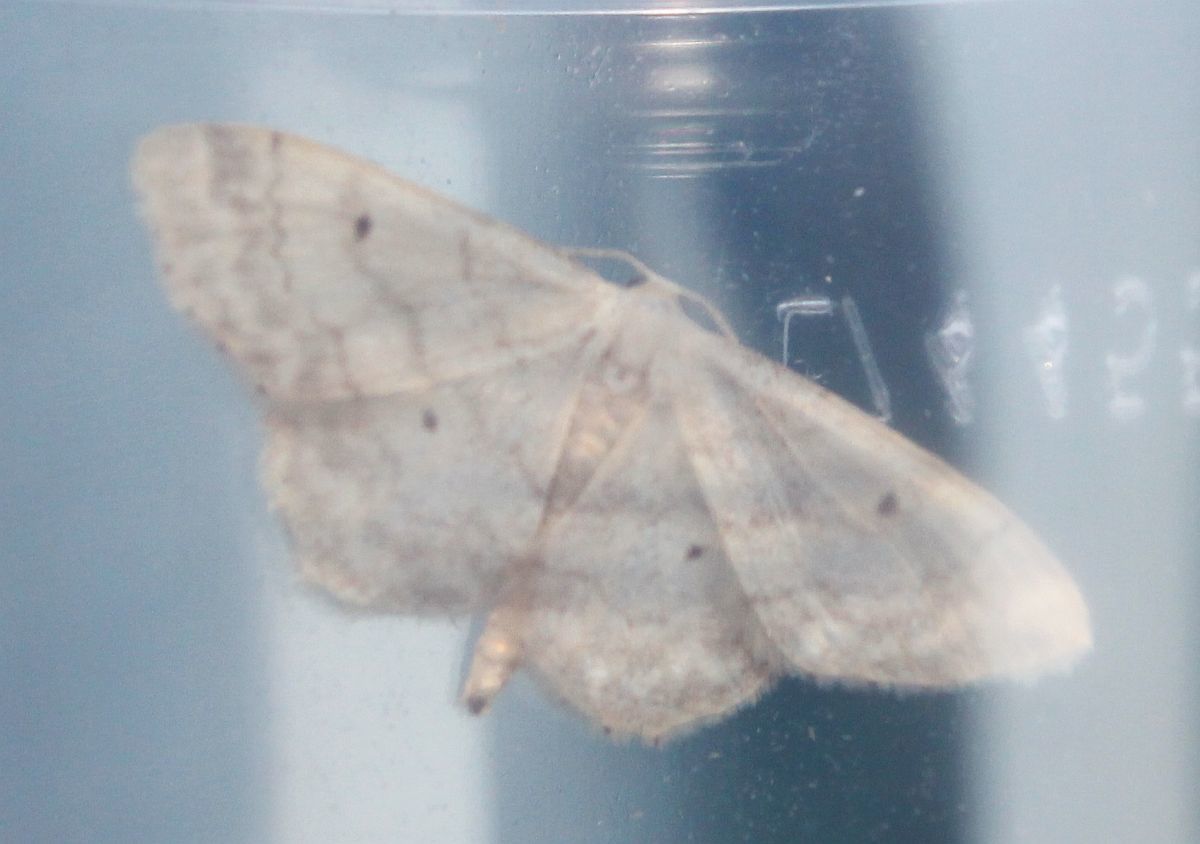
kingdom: Animalia
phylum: Arthropoda
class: Insecta
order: Lepidoptera
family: Geometridae
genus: Idaea
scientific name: Idaea biselata
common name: Small fan-footed wave
